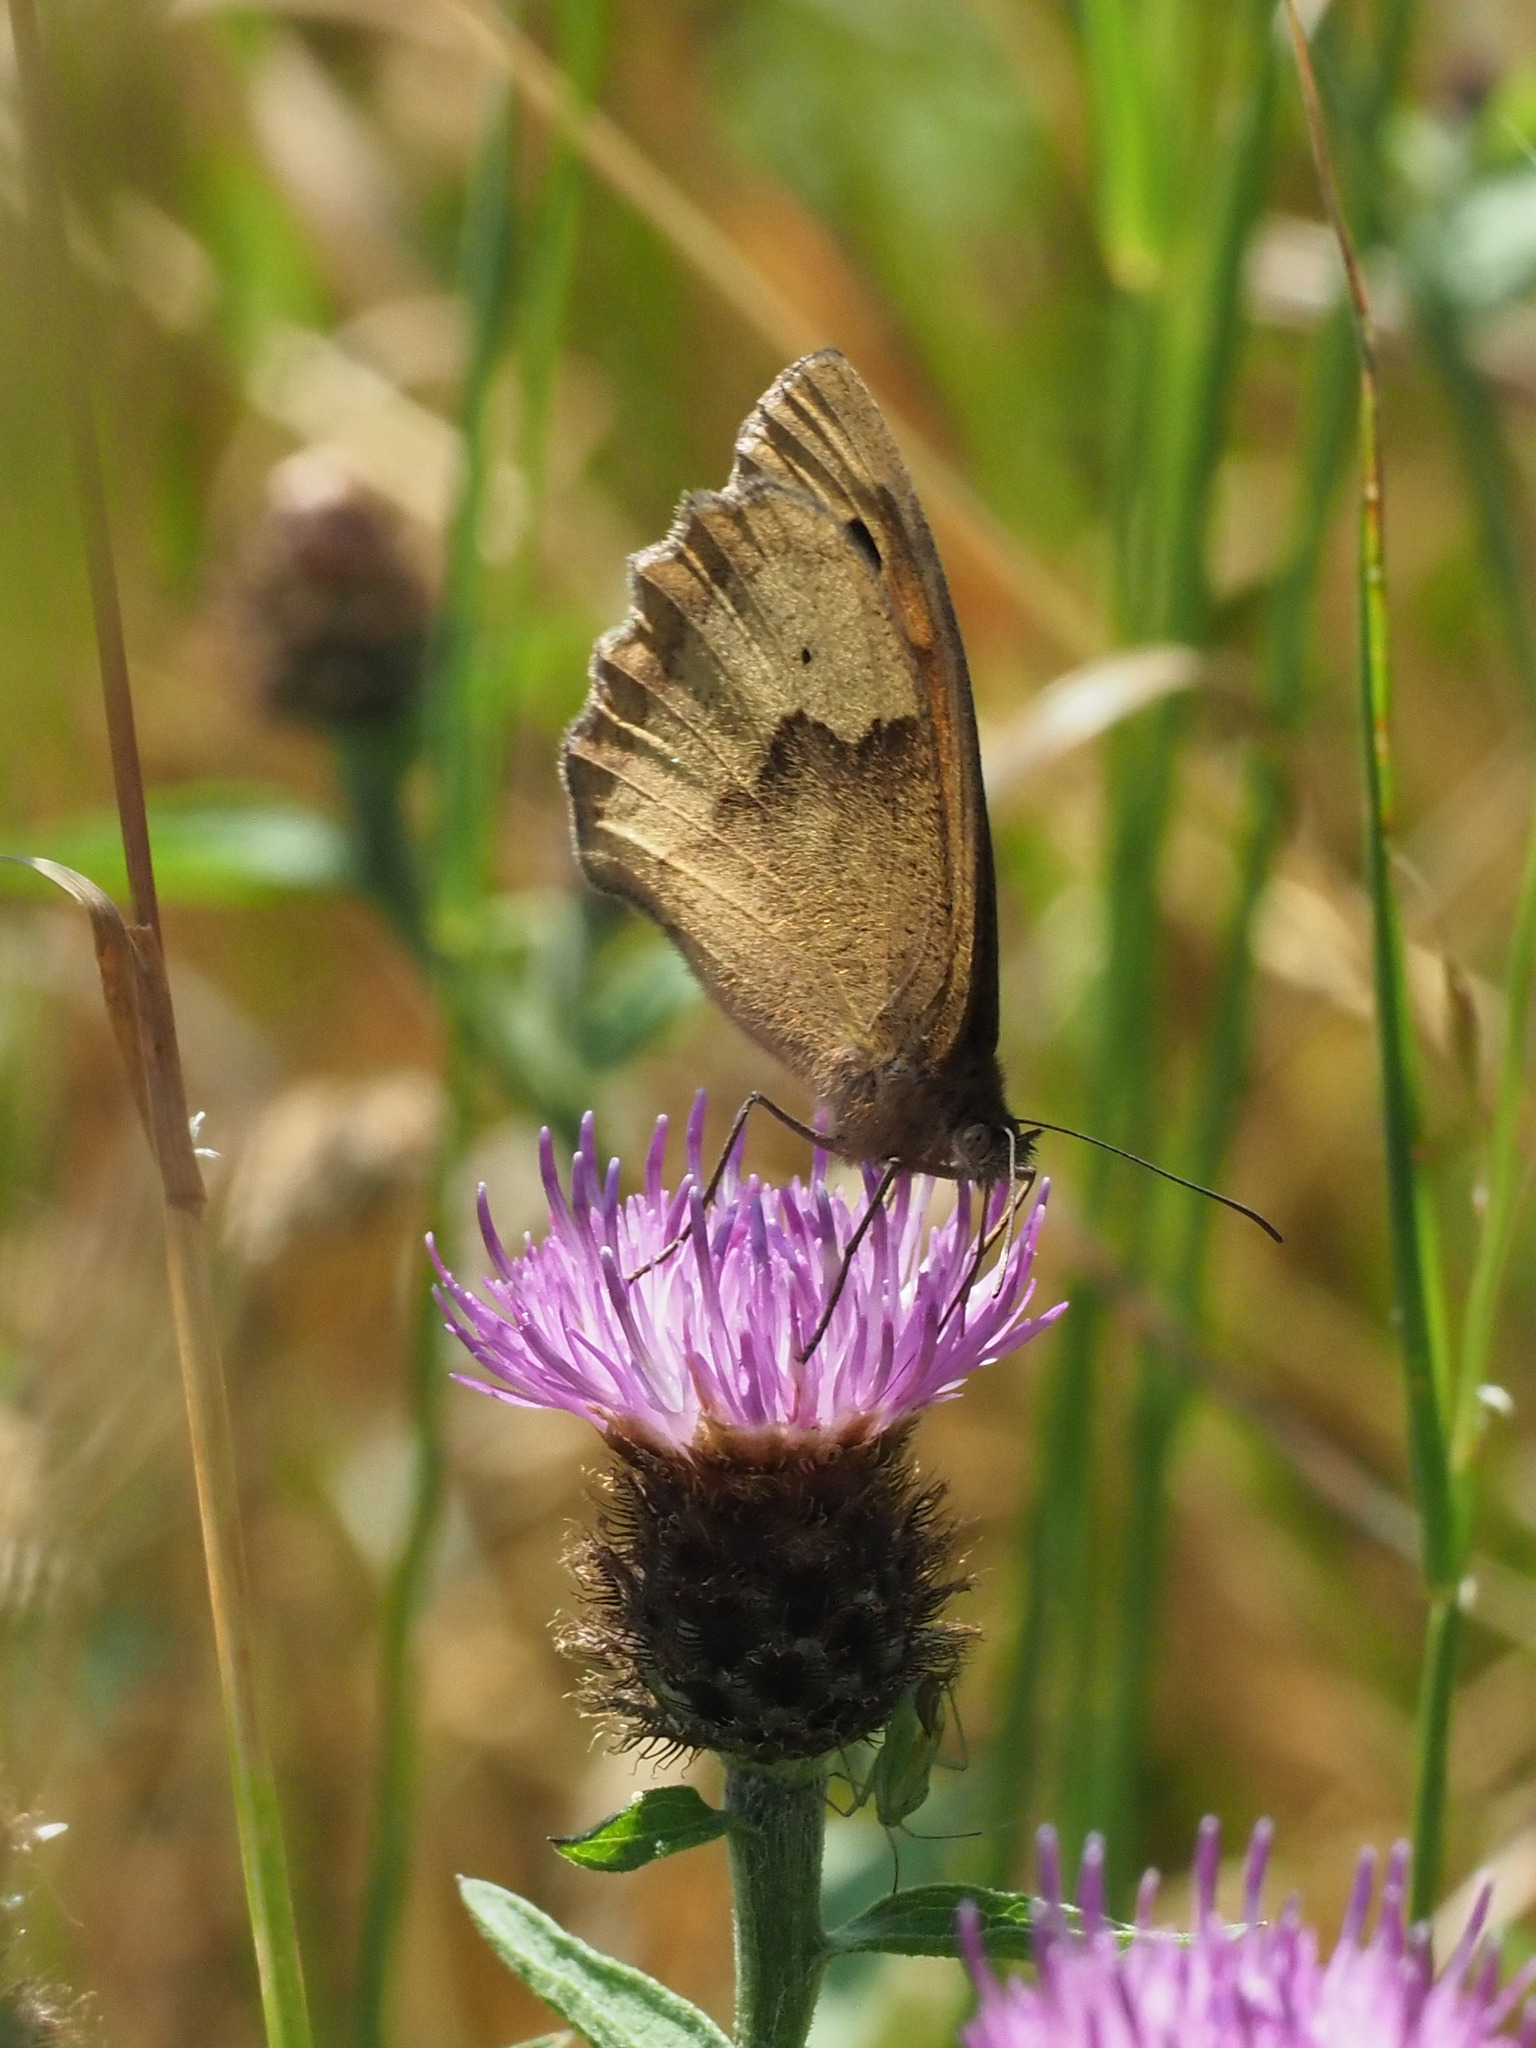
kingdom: Animalia
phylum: Arthropoda
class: Insecta
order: Lepidoptera
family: Nymphalidae
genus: Maniola
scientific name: Maniola jurtina
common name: Meadow brown
